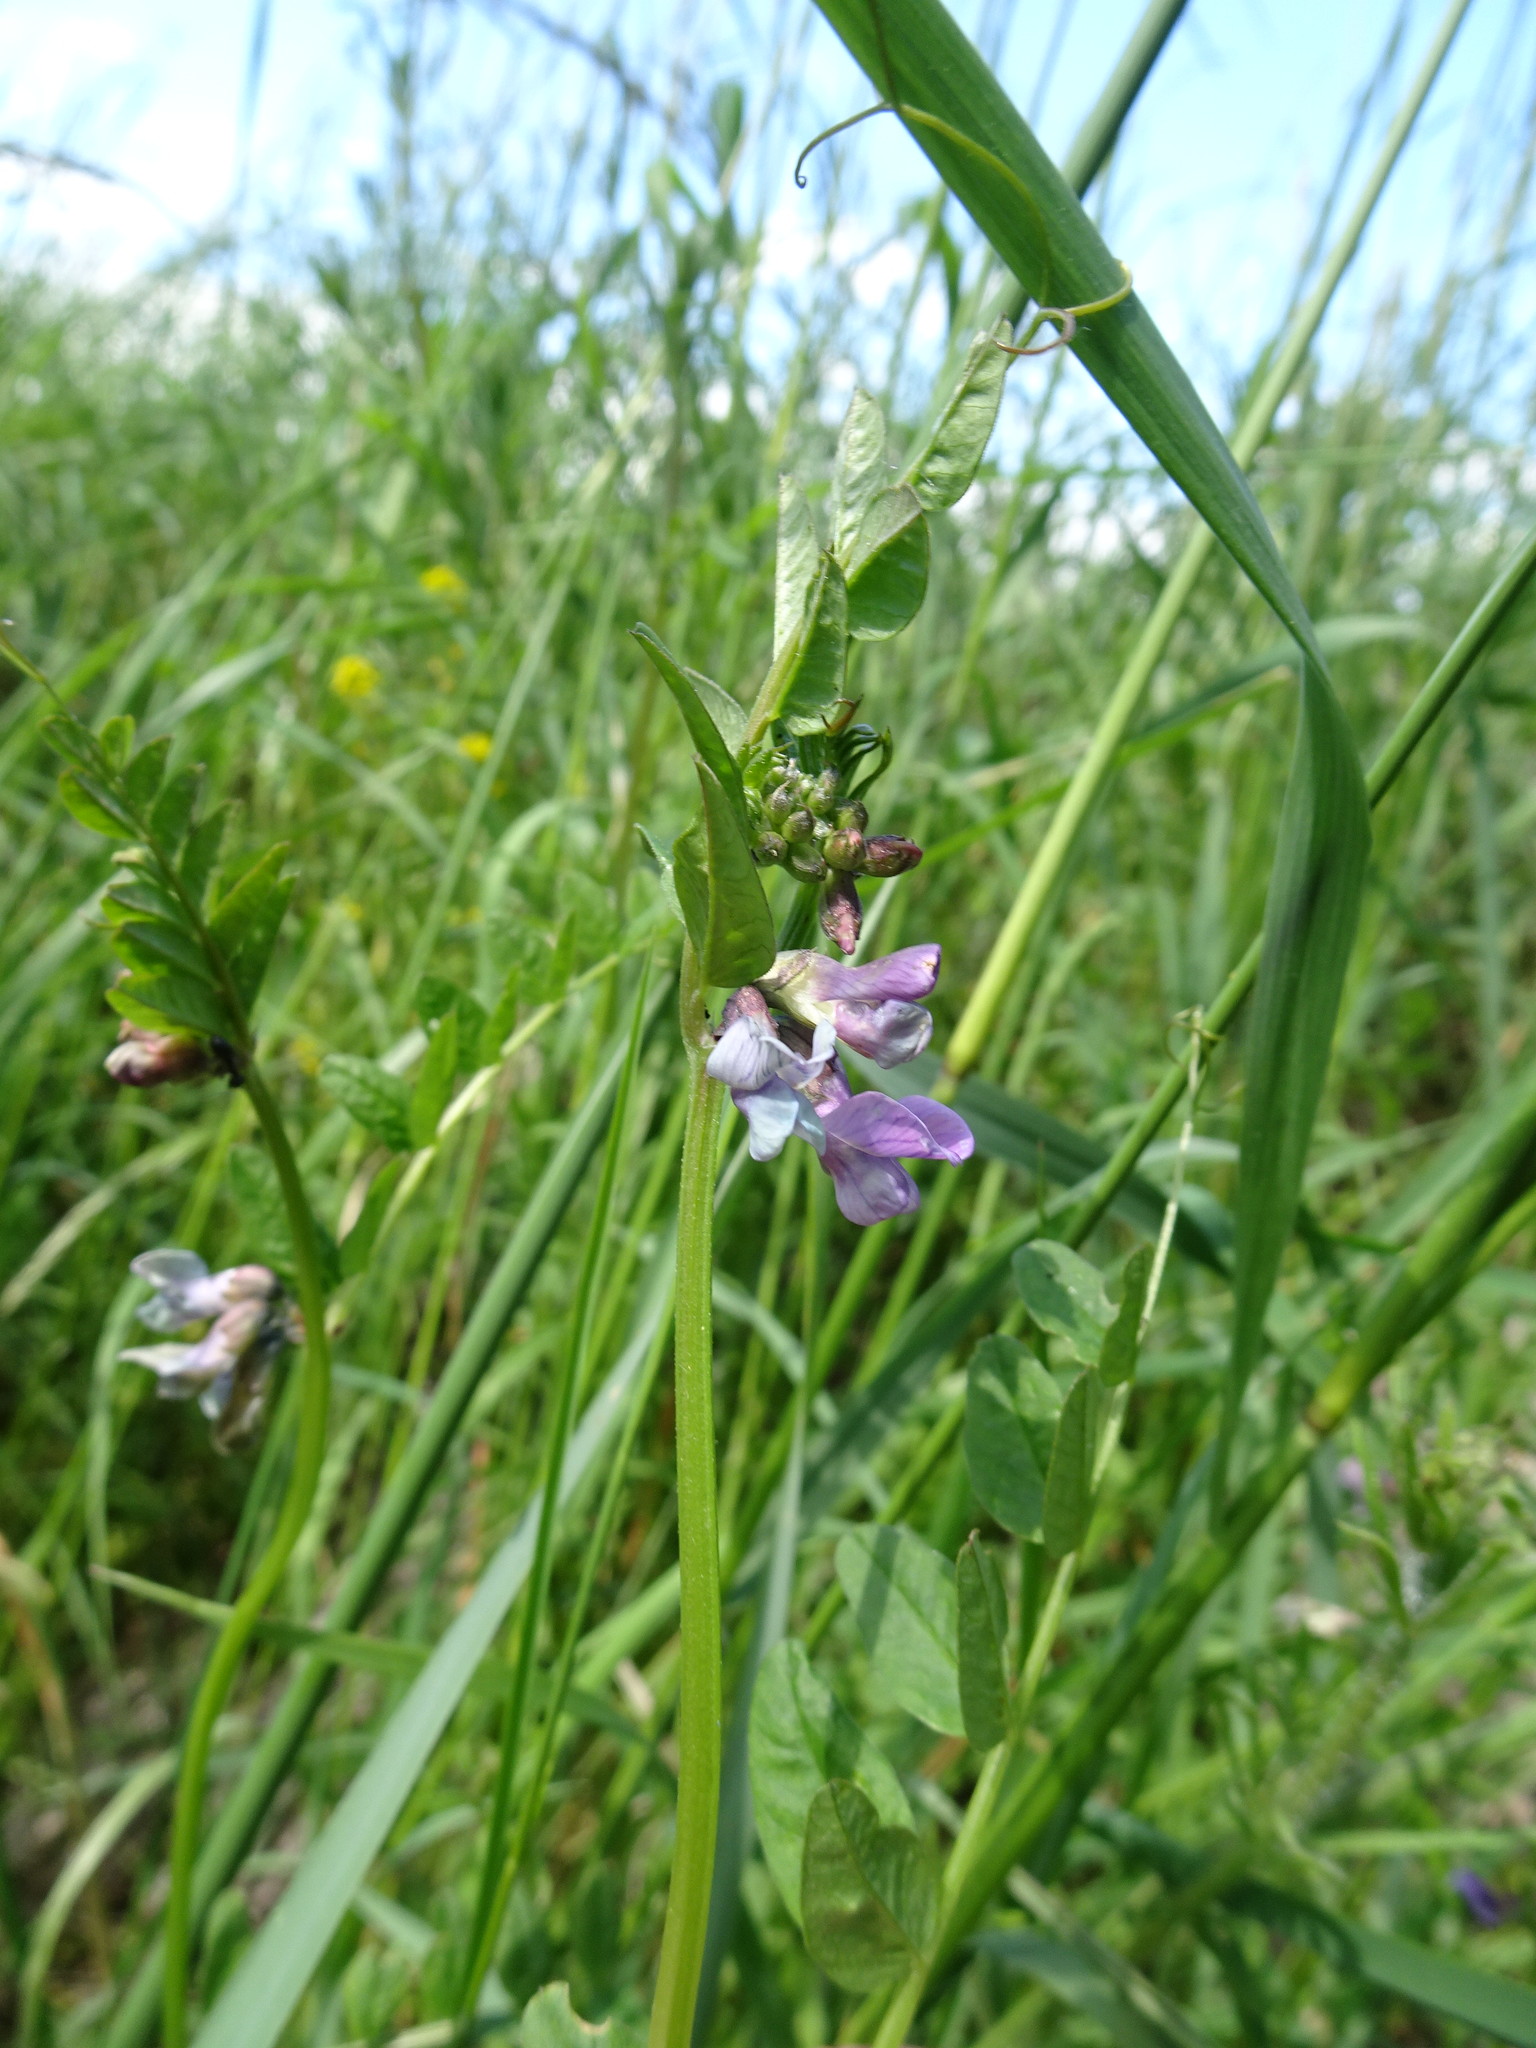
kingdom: Plantae
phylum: Tracheophyta
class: Magnoliopsida
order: Fabales
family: Fabaceae
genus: Vicia
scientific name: Vicia sepium
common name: Bush vetch
